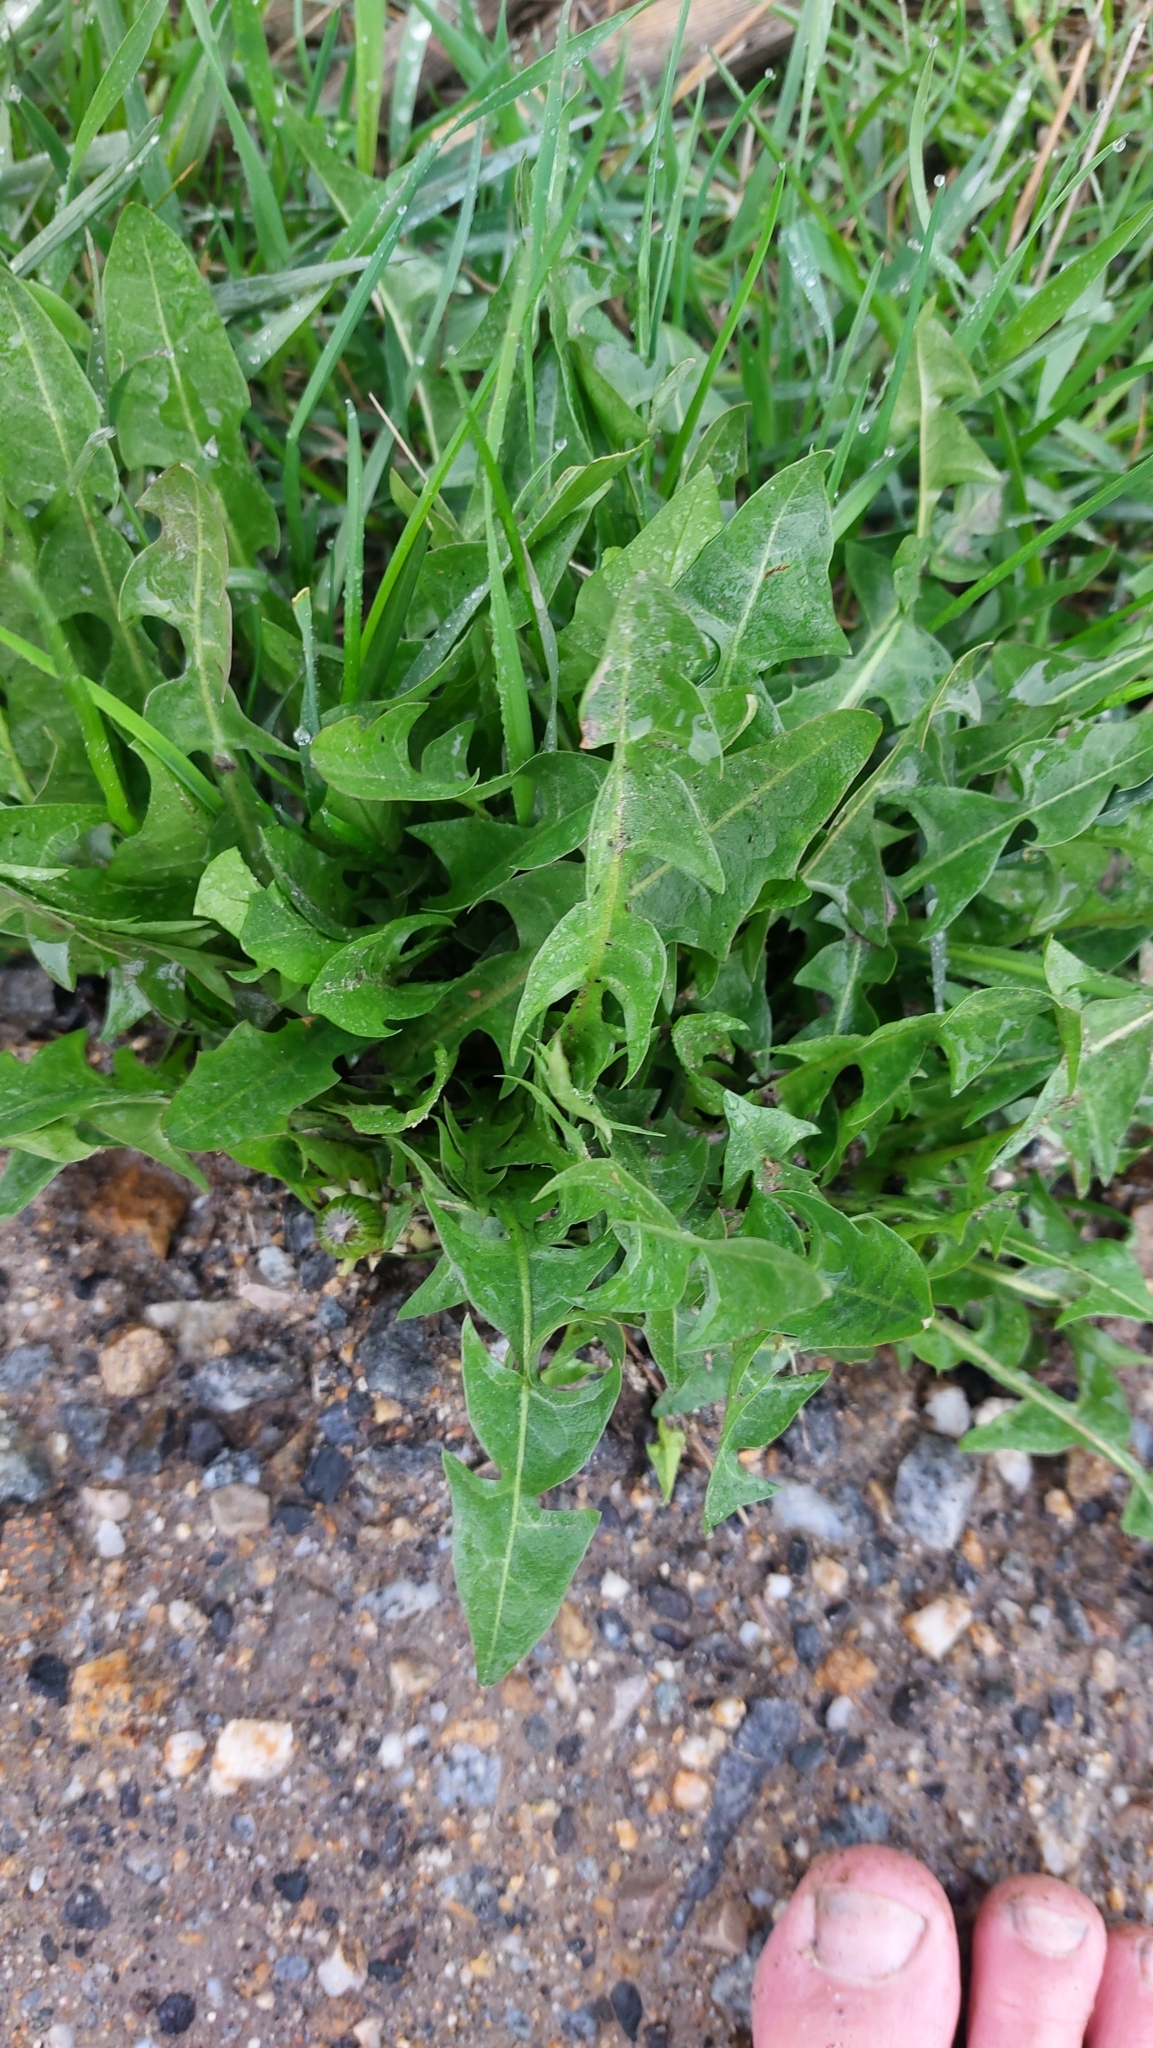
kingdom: Plantae
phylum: Tracheophyta
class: Magnoliopsida
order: Asterales
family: Asteraceae
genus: Taraxacum
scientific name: Taraxacum
